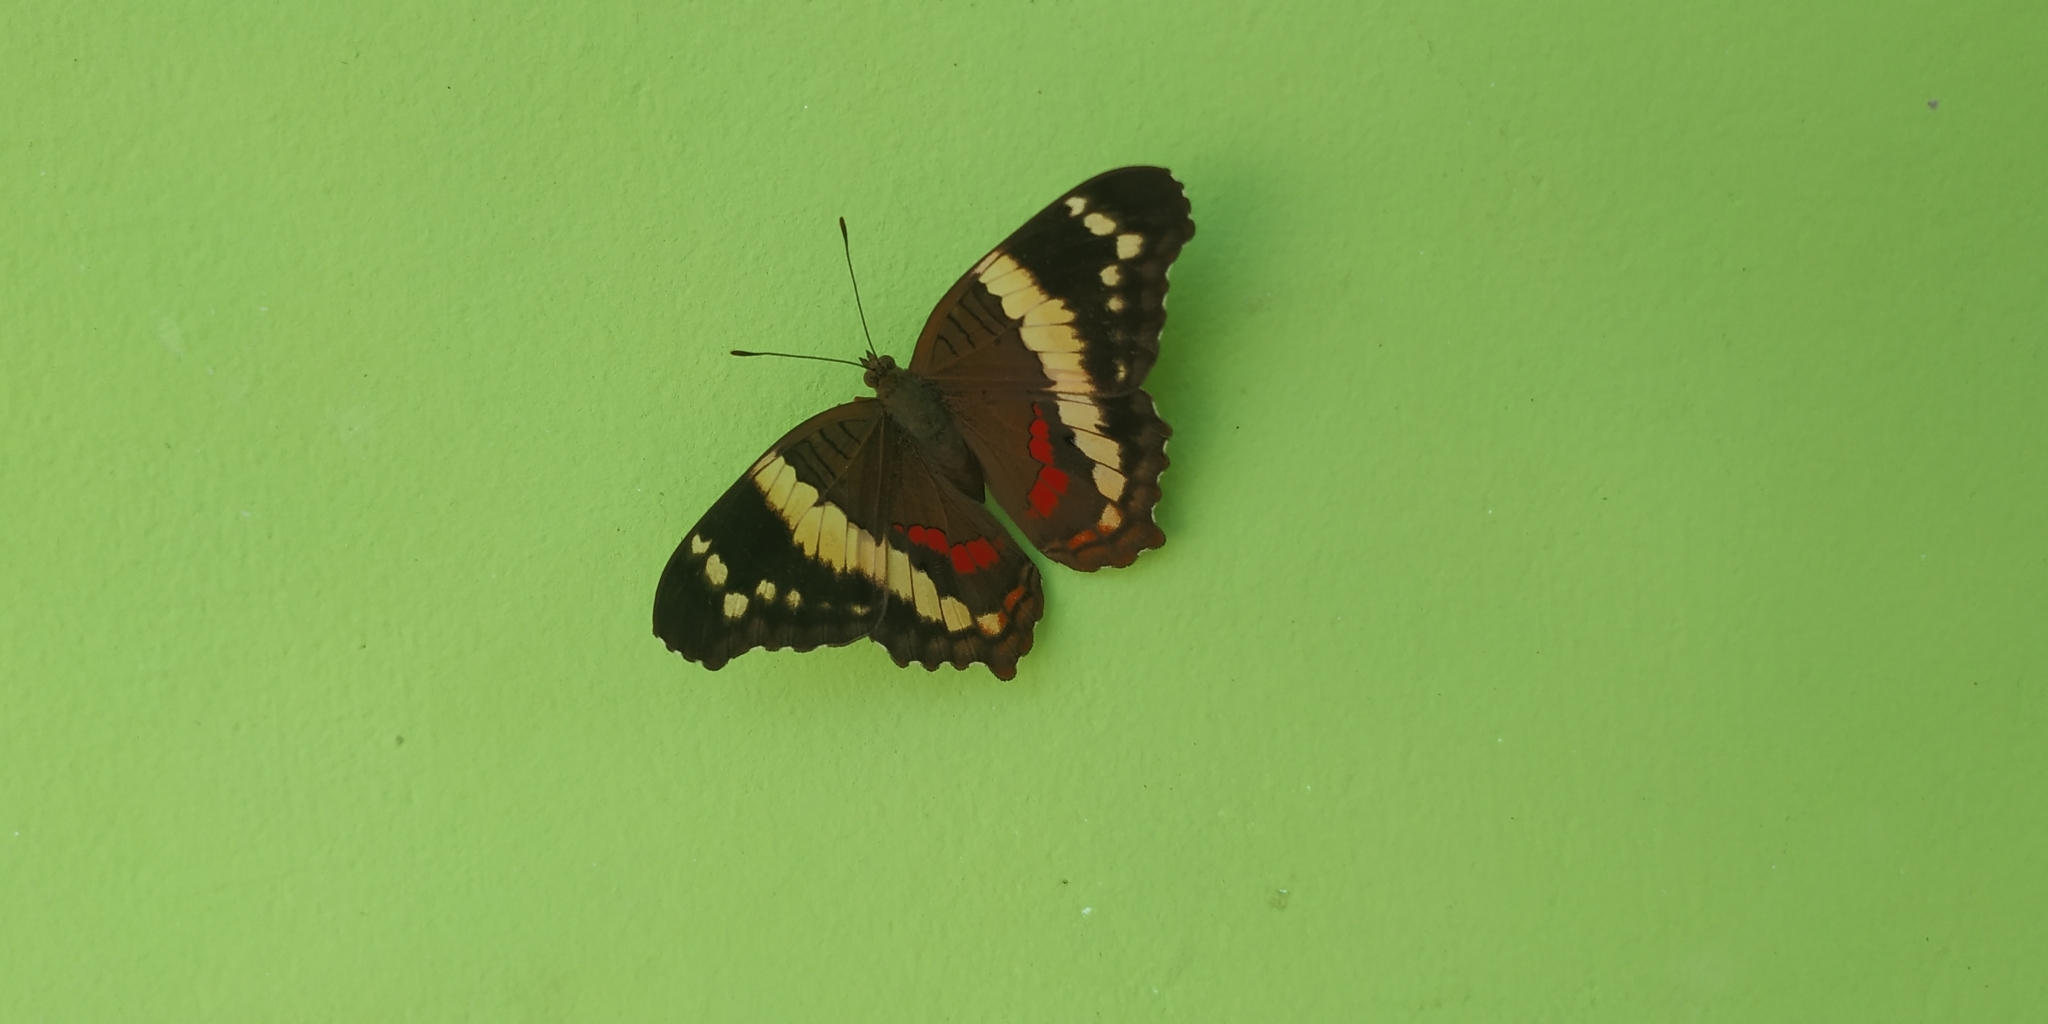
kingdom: Animalia
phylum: Arthropoda
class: Insecta
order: Lepidoptera
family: Nymphalidae
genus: Anartia
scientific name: Anartia fatima
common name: Banded peacock
